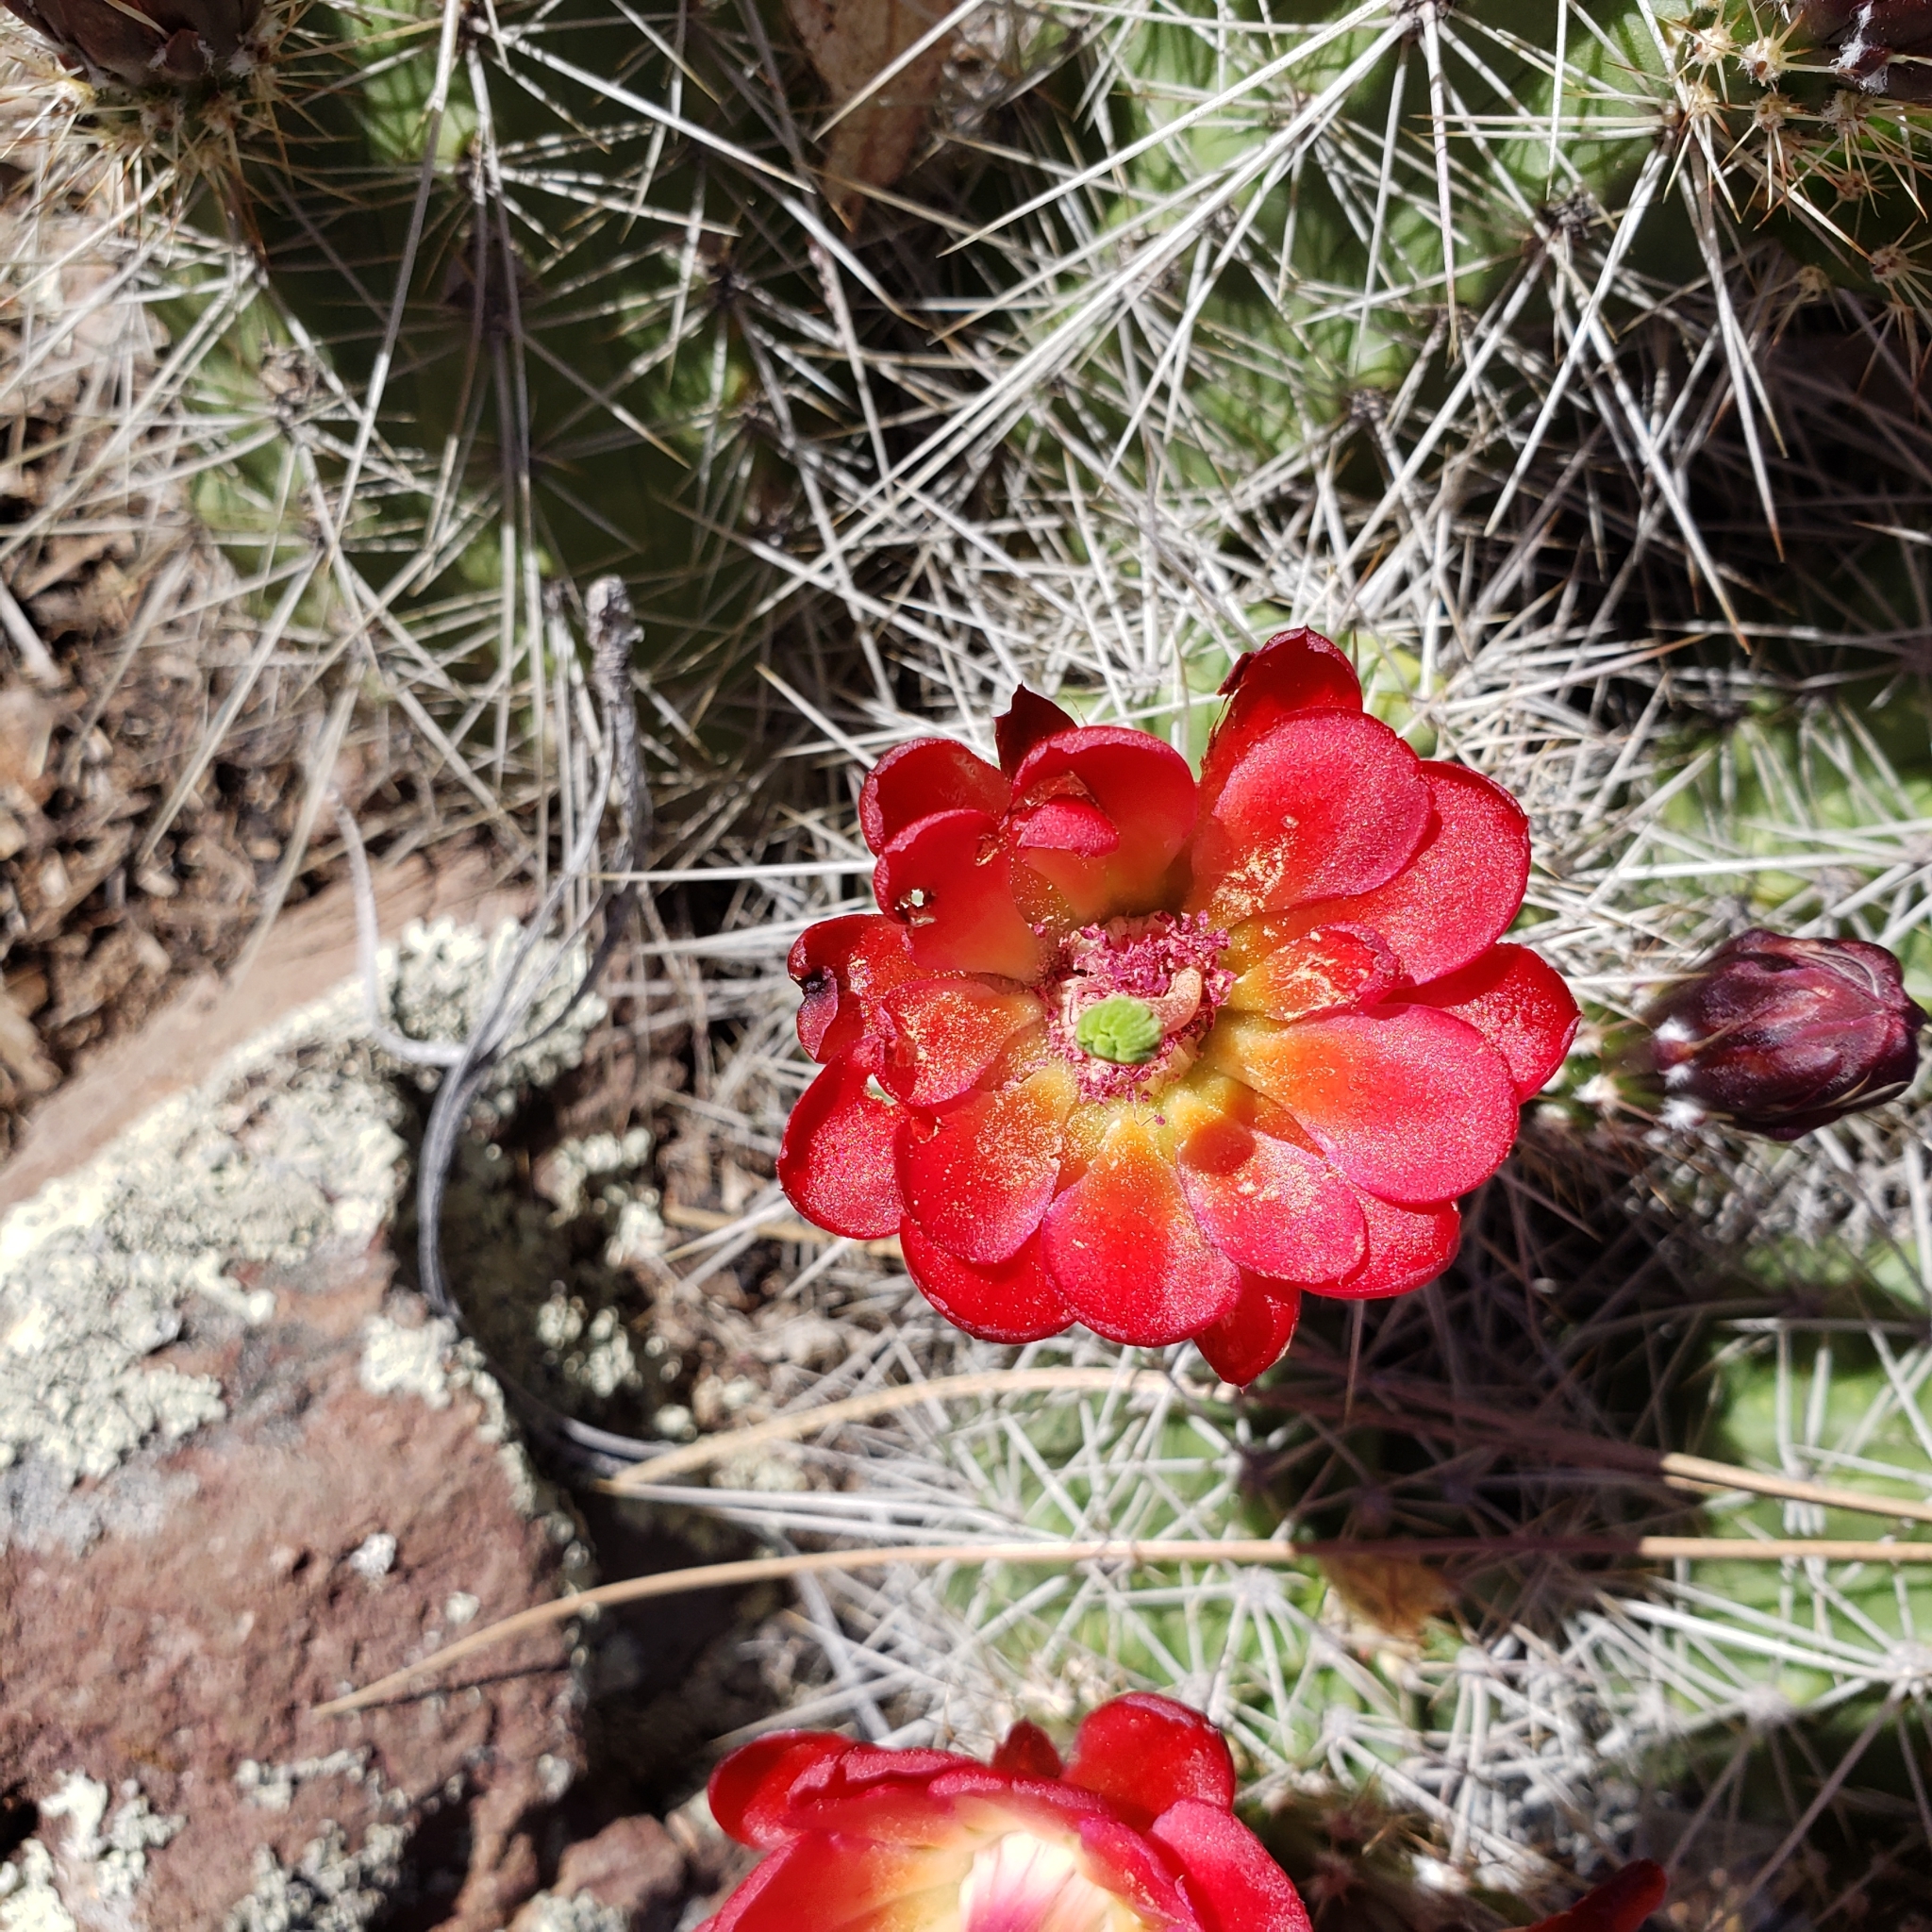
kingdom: Plantae
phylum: Tracheophyta
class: Magnoliopsida
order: Caryophyllales
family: Cactaceae
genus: Echinocereus
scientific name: Echinocereus bakeri
